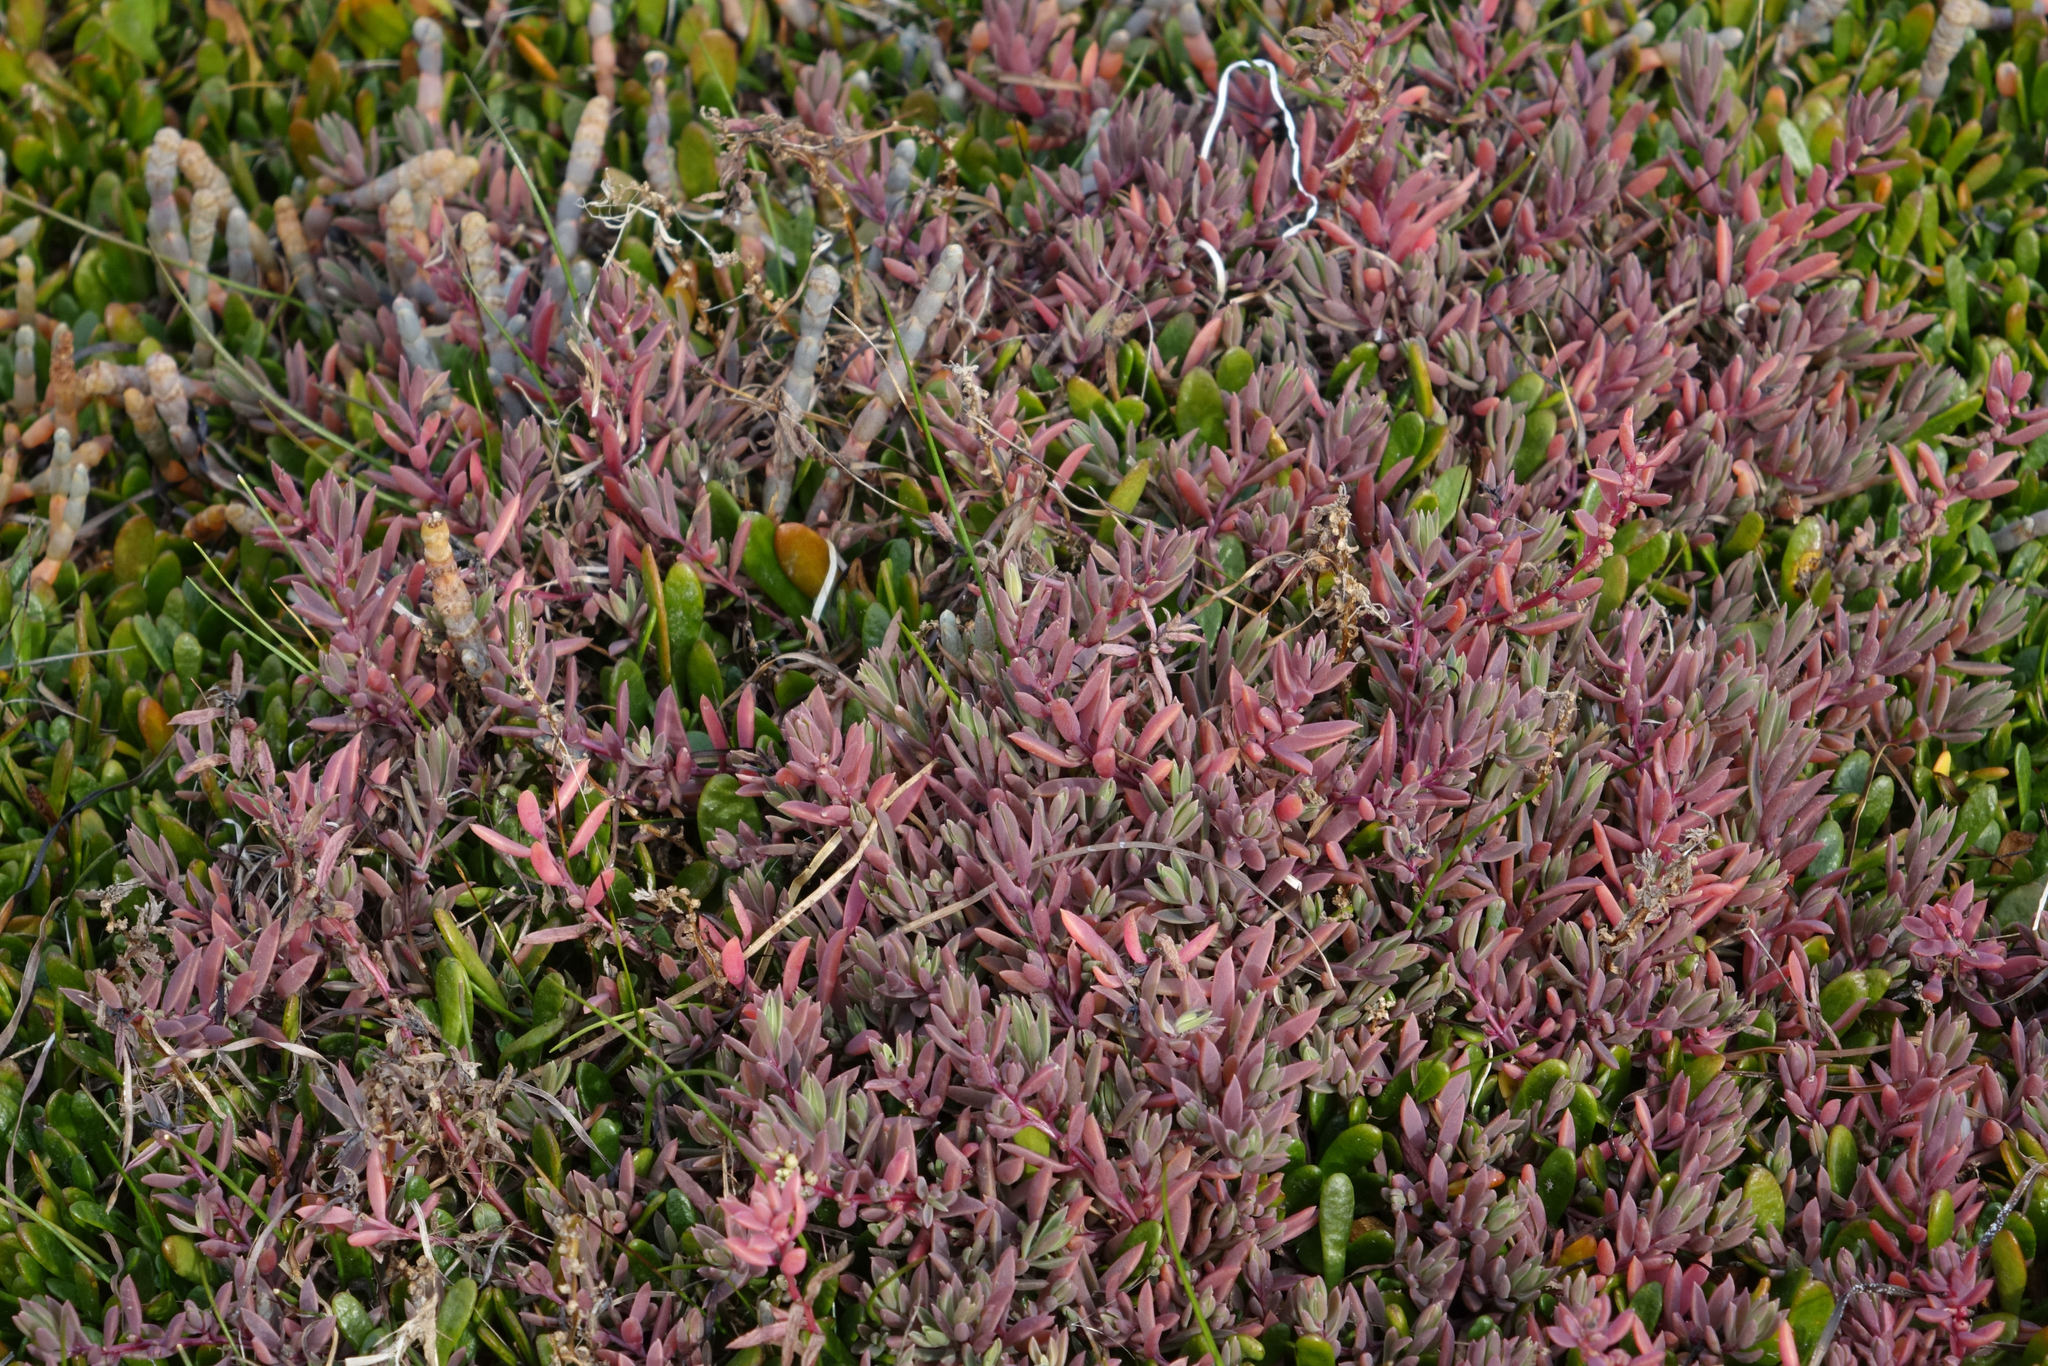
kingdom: Plantae
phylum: Tracheophyta
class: Magnoliopsida
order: Caryophyllales
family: Amaranthaceae
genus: Suaeda
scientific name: Suaeda novae-zelandiae
